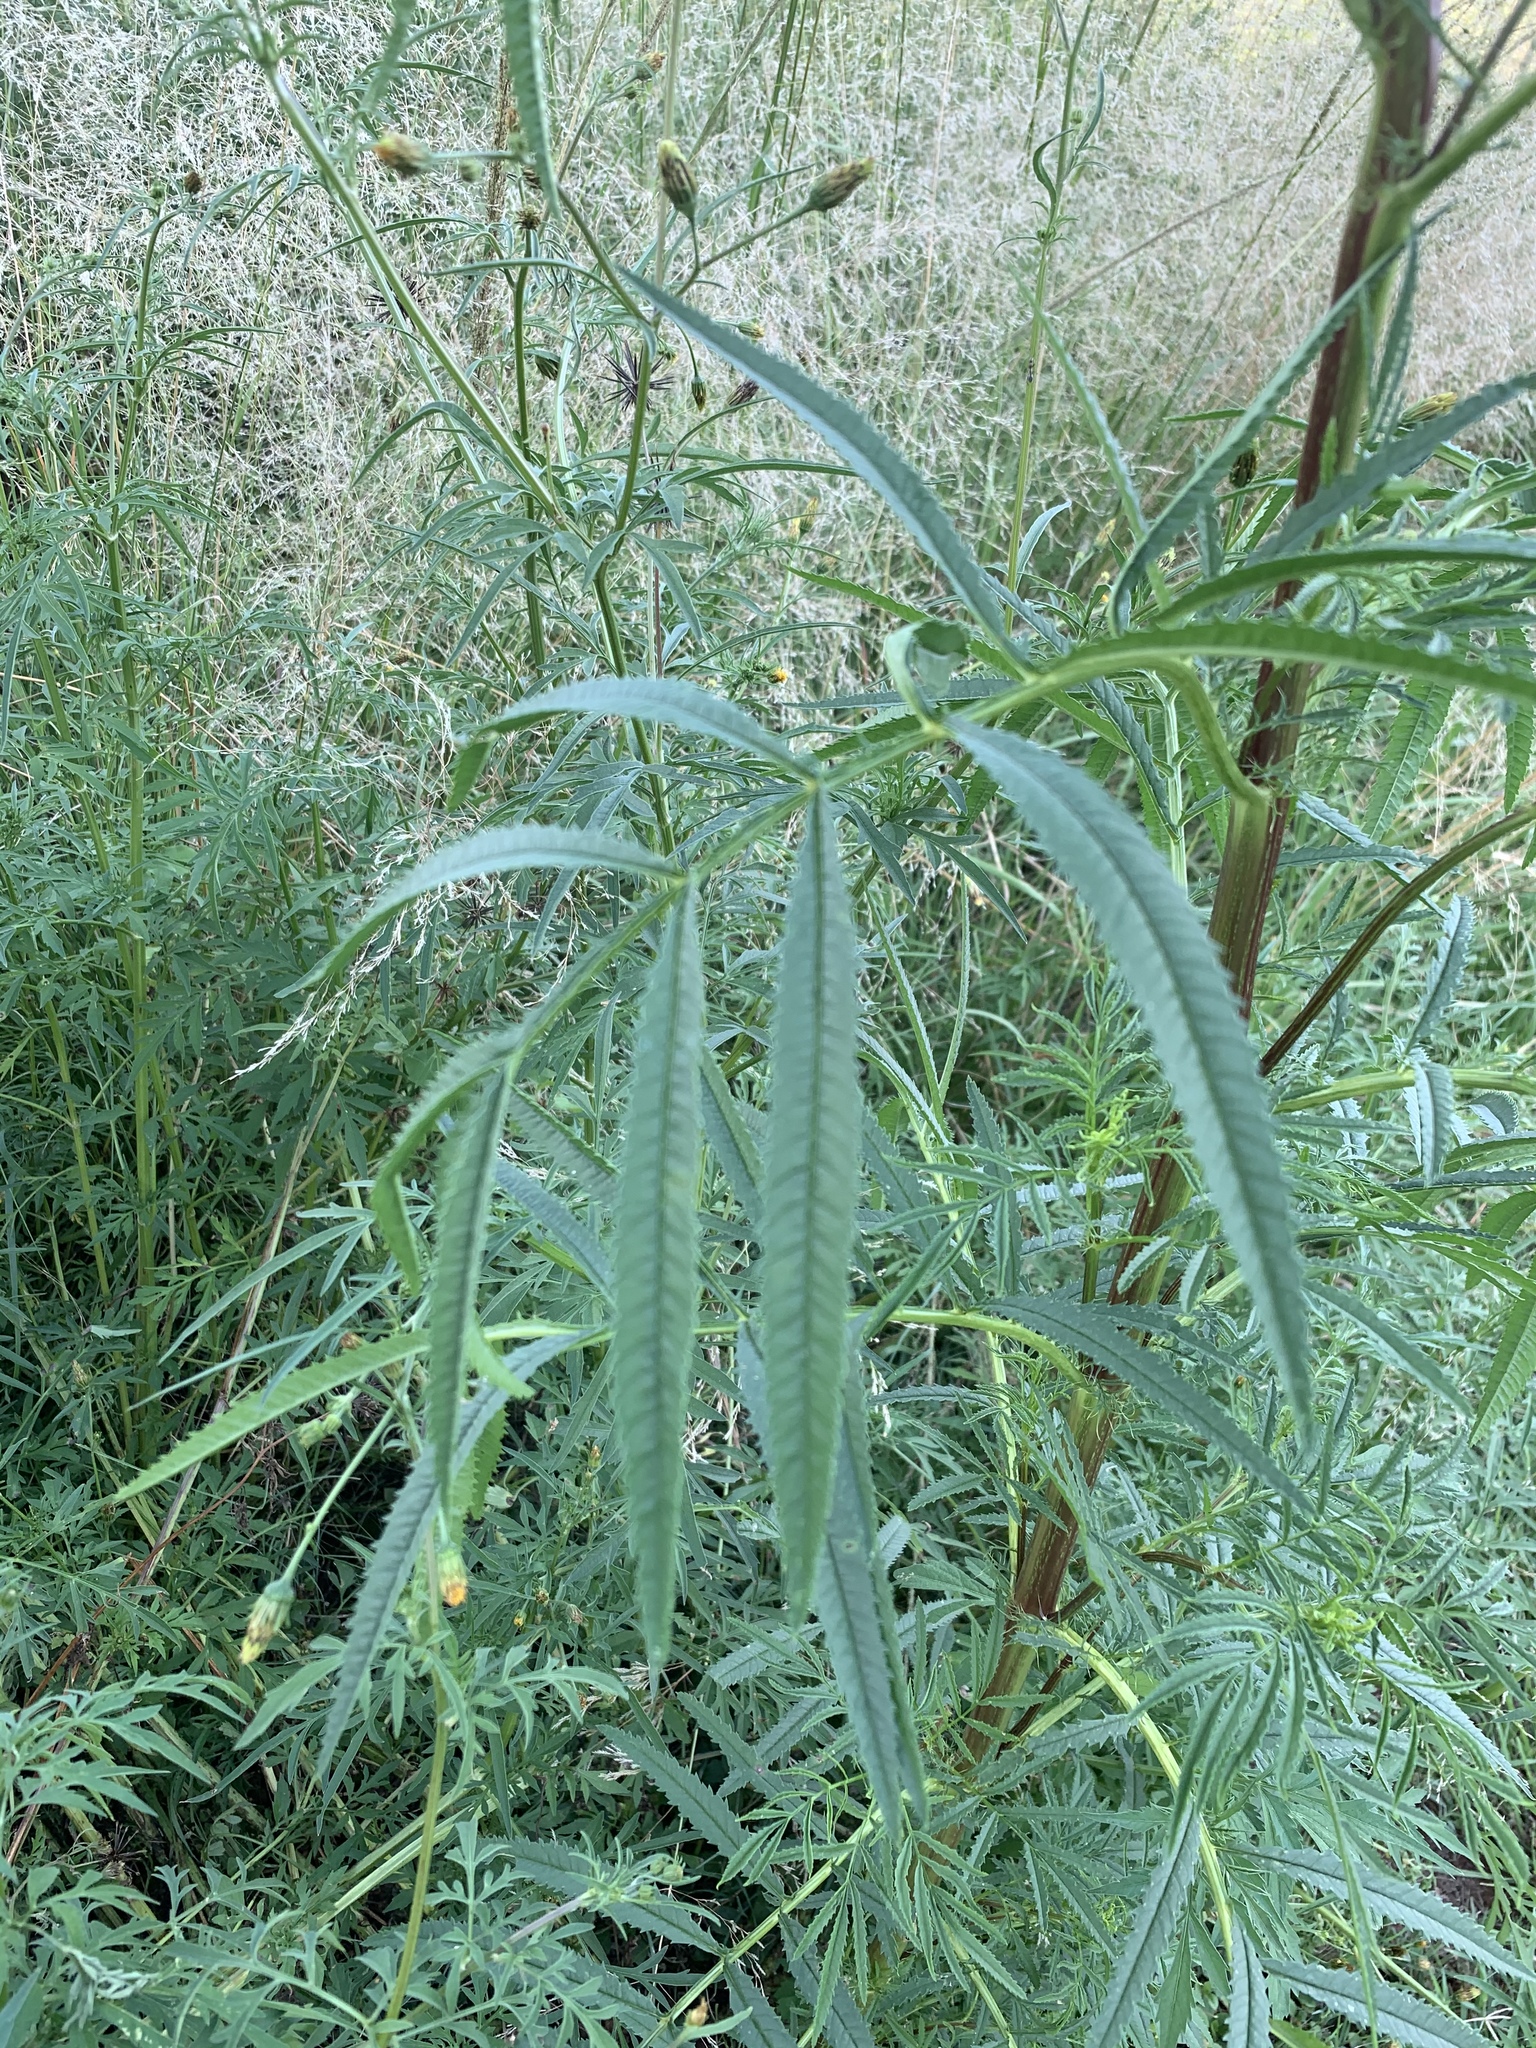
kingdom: Plantae
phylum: Tracheophyta
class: Magnoliopsida
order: Asterales
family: Asteraceae
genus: Tagetes
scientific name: Tagetes minuta
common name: Muster john henry
